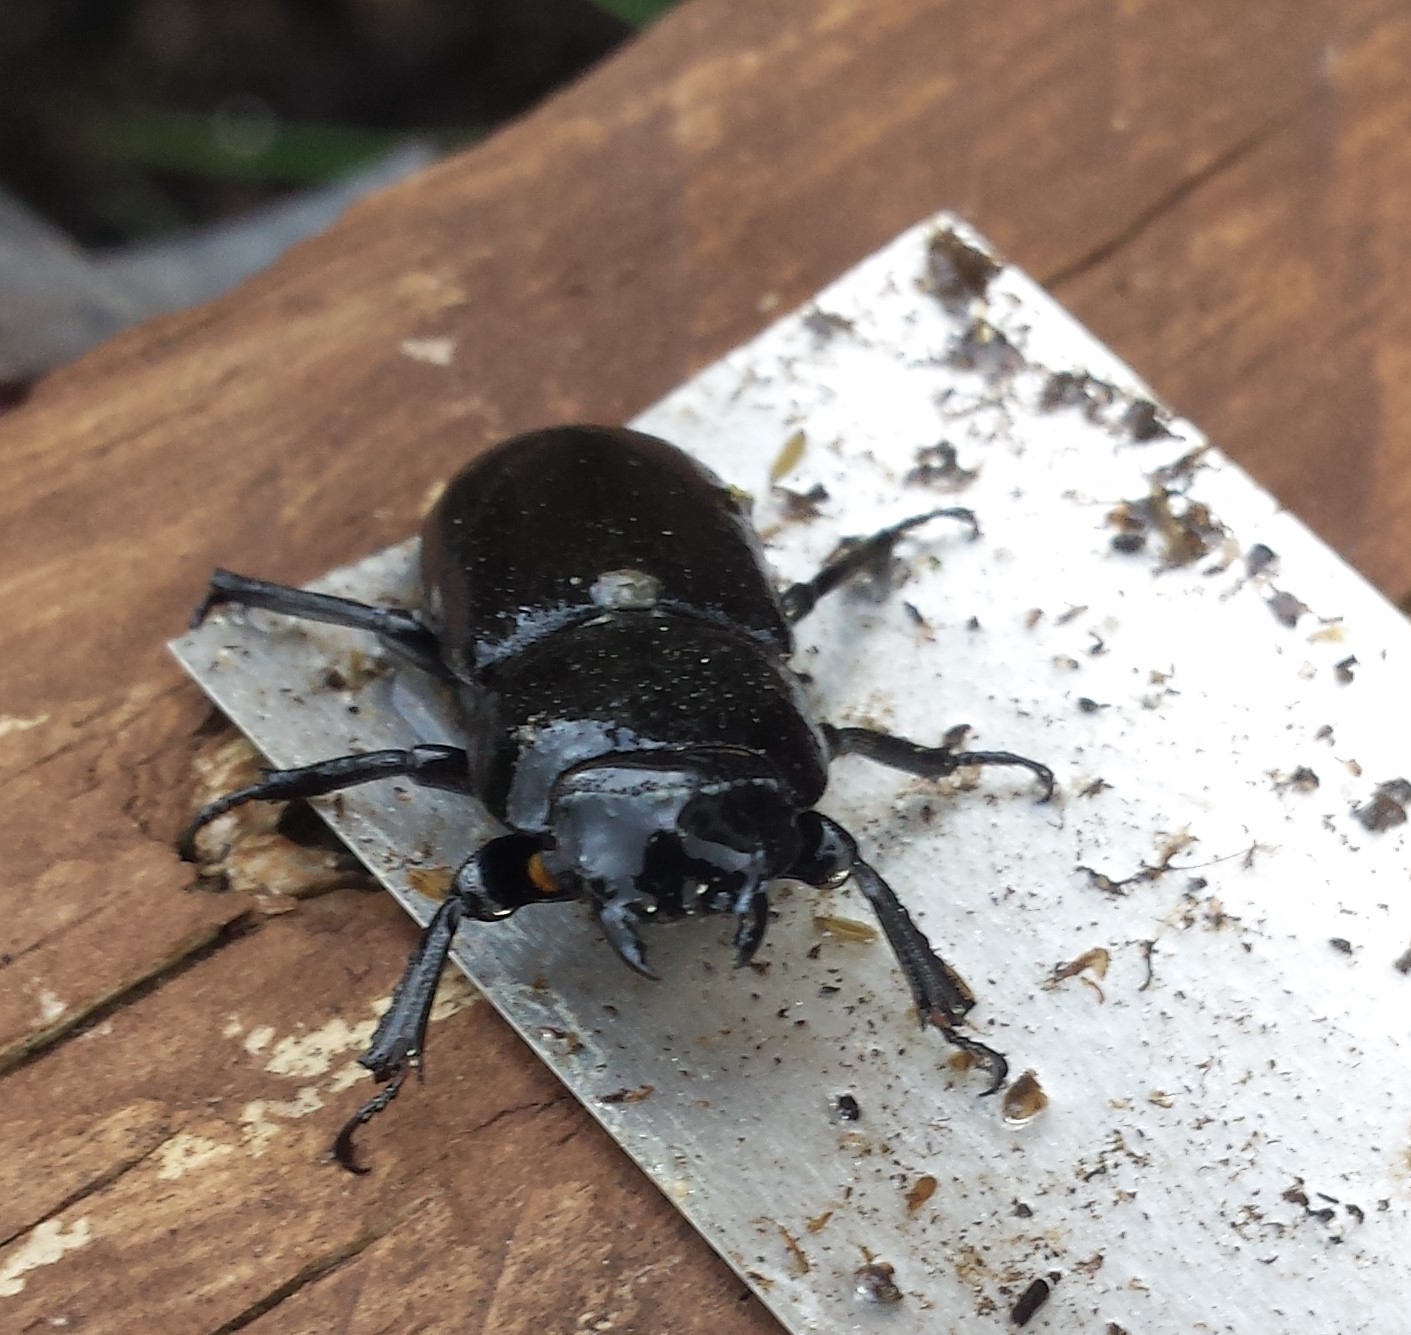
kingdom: Animalia
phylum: Arthropoda
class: Insecta
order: Coleoptera
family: Lucanidae
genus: Dorcus
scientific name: Dorcus parallelipipedus
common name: Lesser stag beetle
